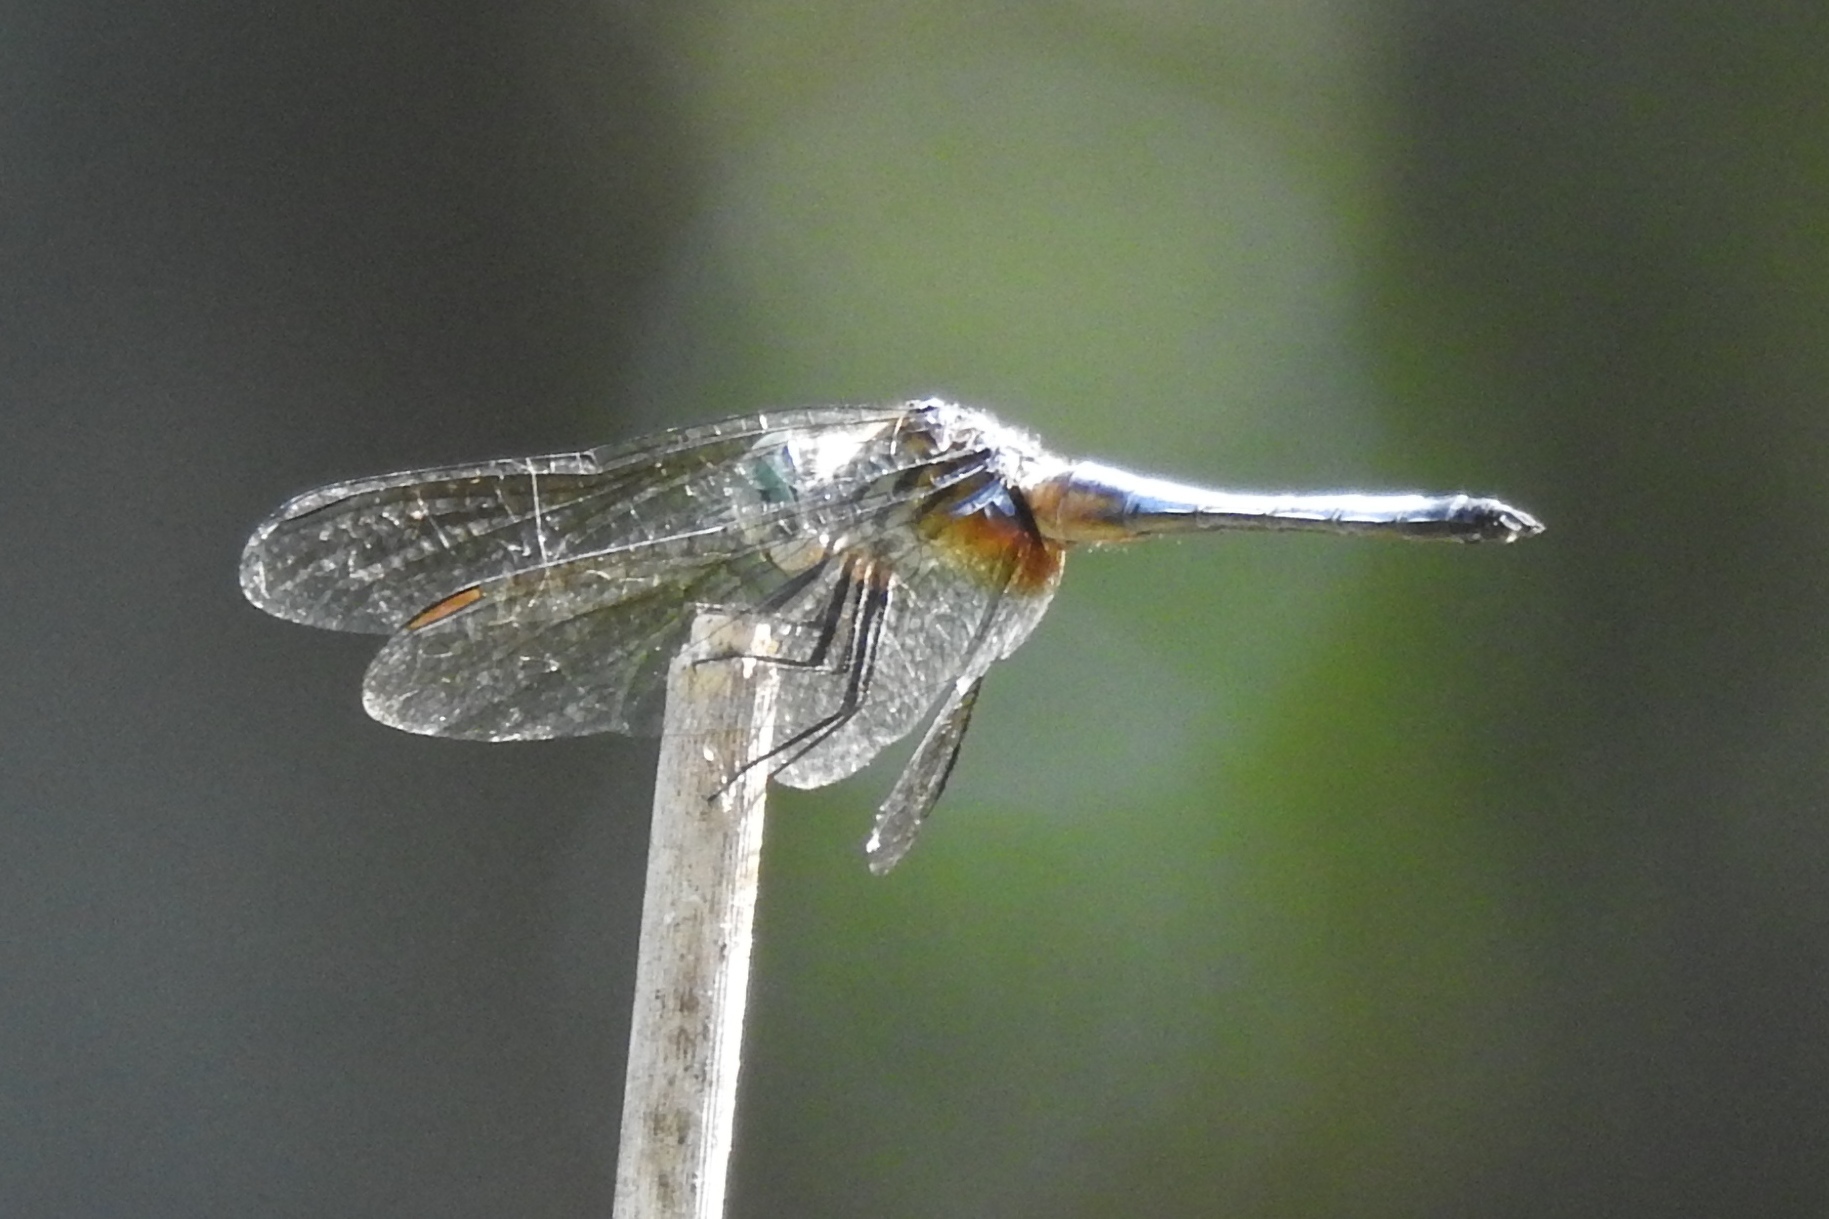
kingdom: Animalia
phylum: Arthropoda
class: Insecta
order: Odonata
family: Libellulidae
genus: Pachydiplax
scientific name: Pachydiplax longipennis
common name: Blue dasher
